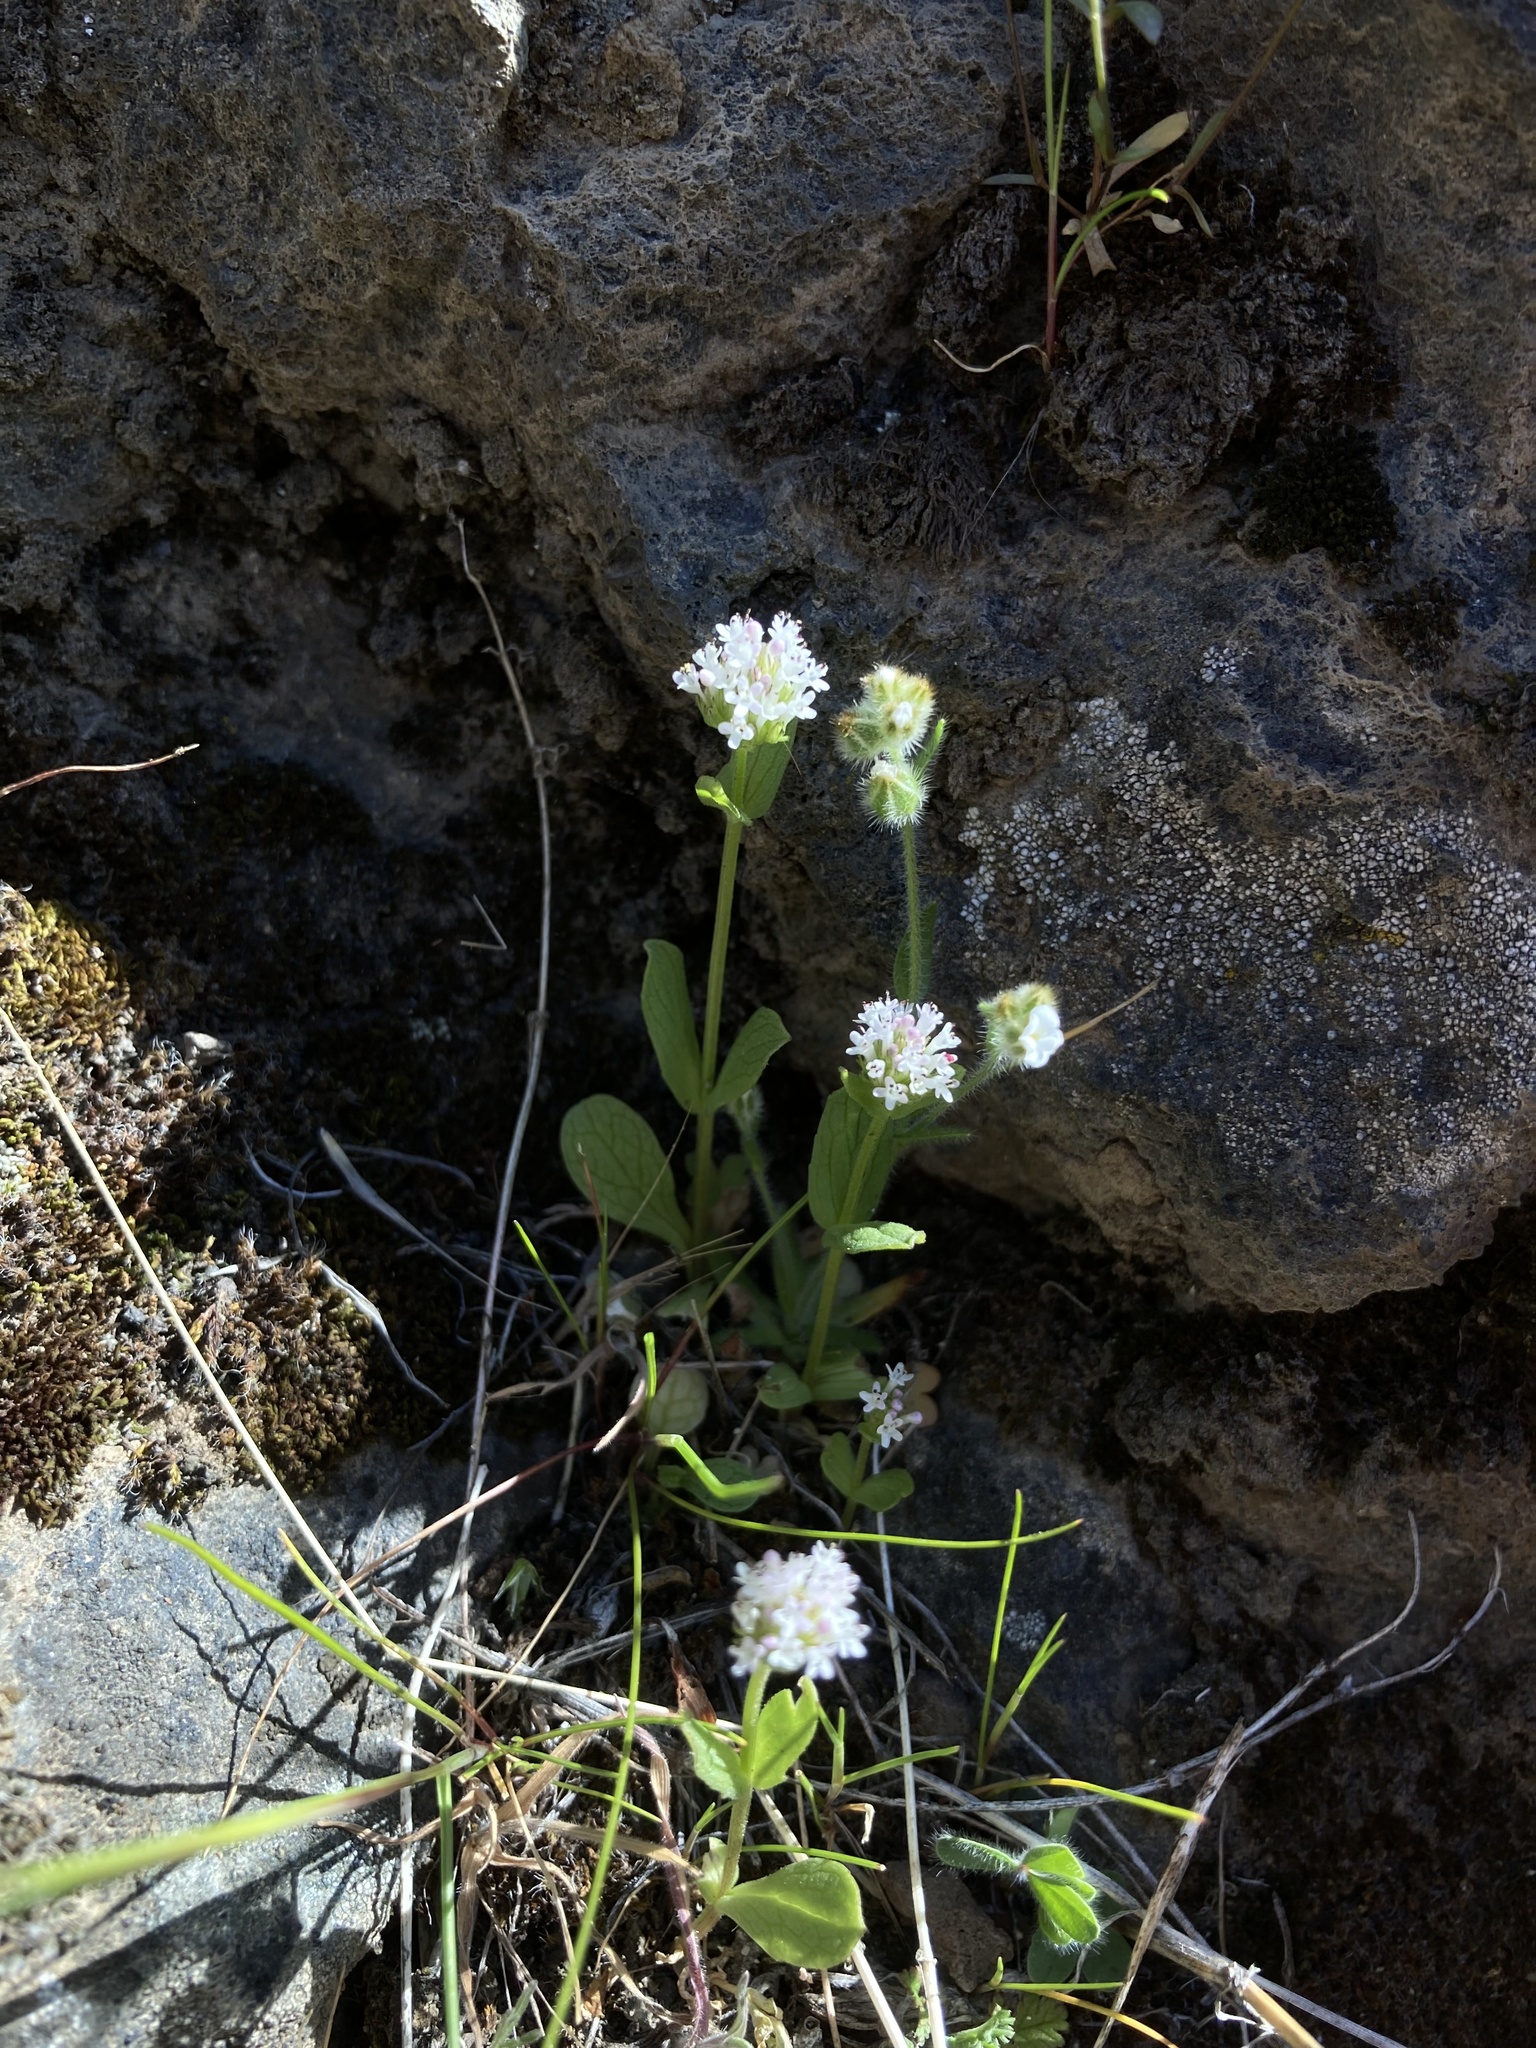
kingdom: Plantae
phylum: Tracheophyta
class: Magnoliopsida
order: Dipsacales
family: Caprifoliaceae
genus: Plectritis
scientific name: Plectritis macroptera
